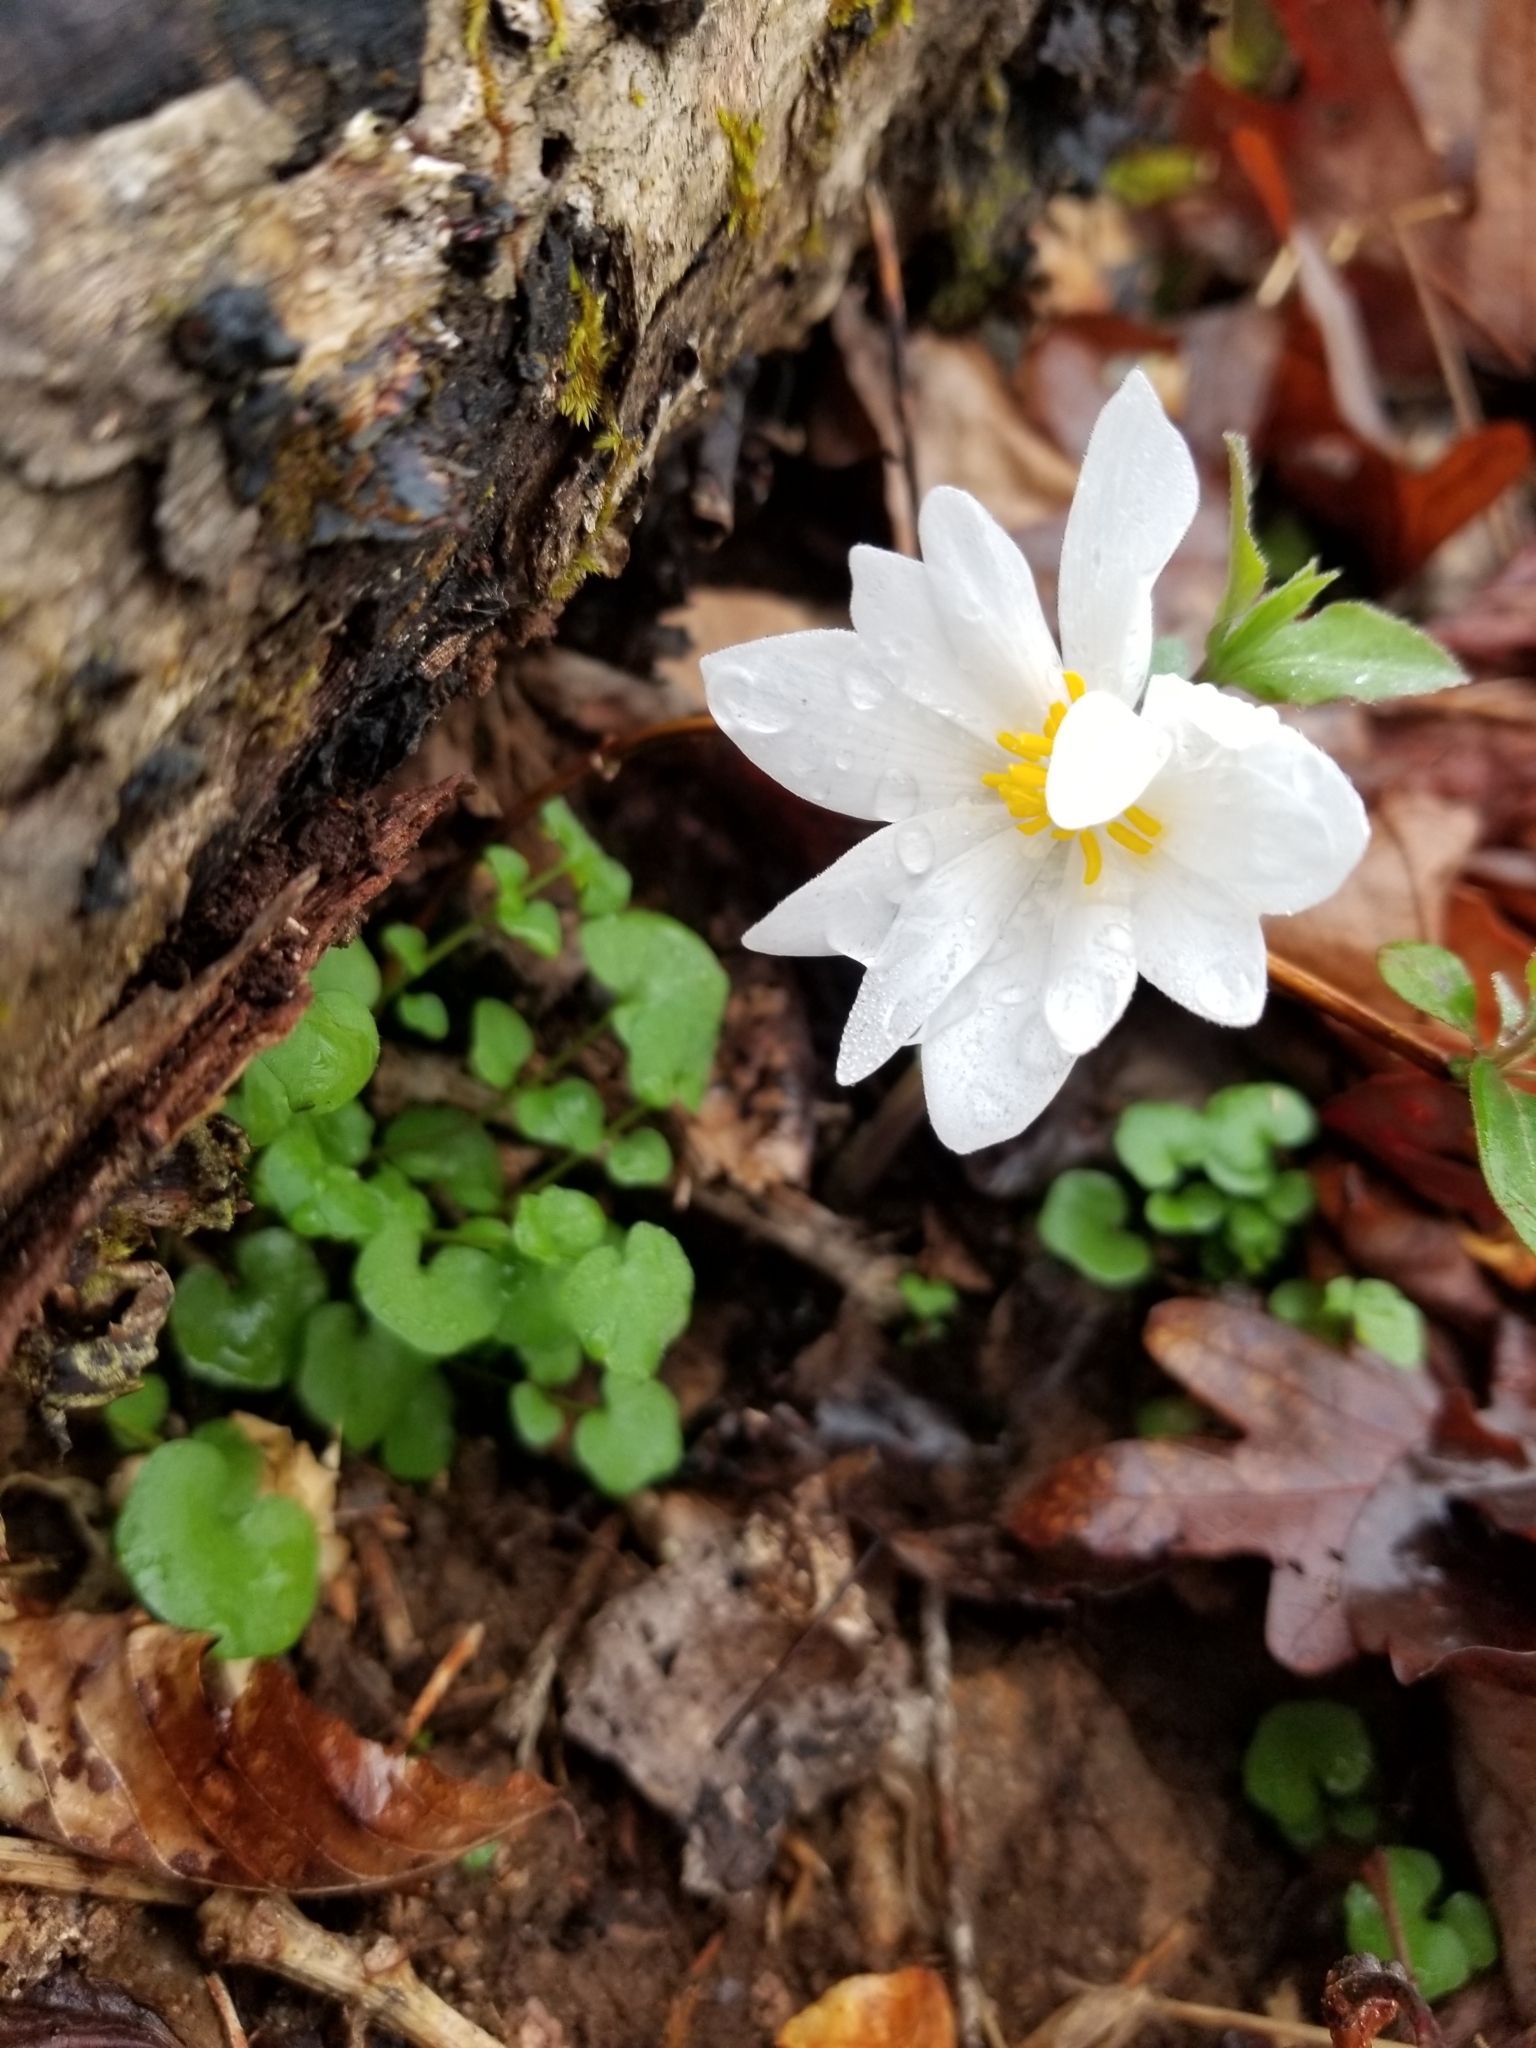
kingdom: Plantae
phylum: Tracheophyta
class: Magnoliopsida
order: Ranunculales
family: Papaveraceae
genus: Sanguinaria
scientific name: Sanguinaria canadensis
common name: Bloodroot
